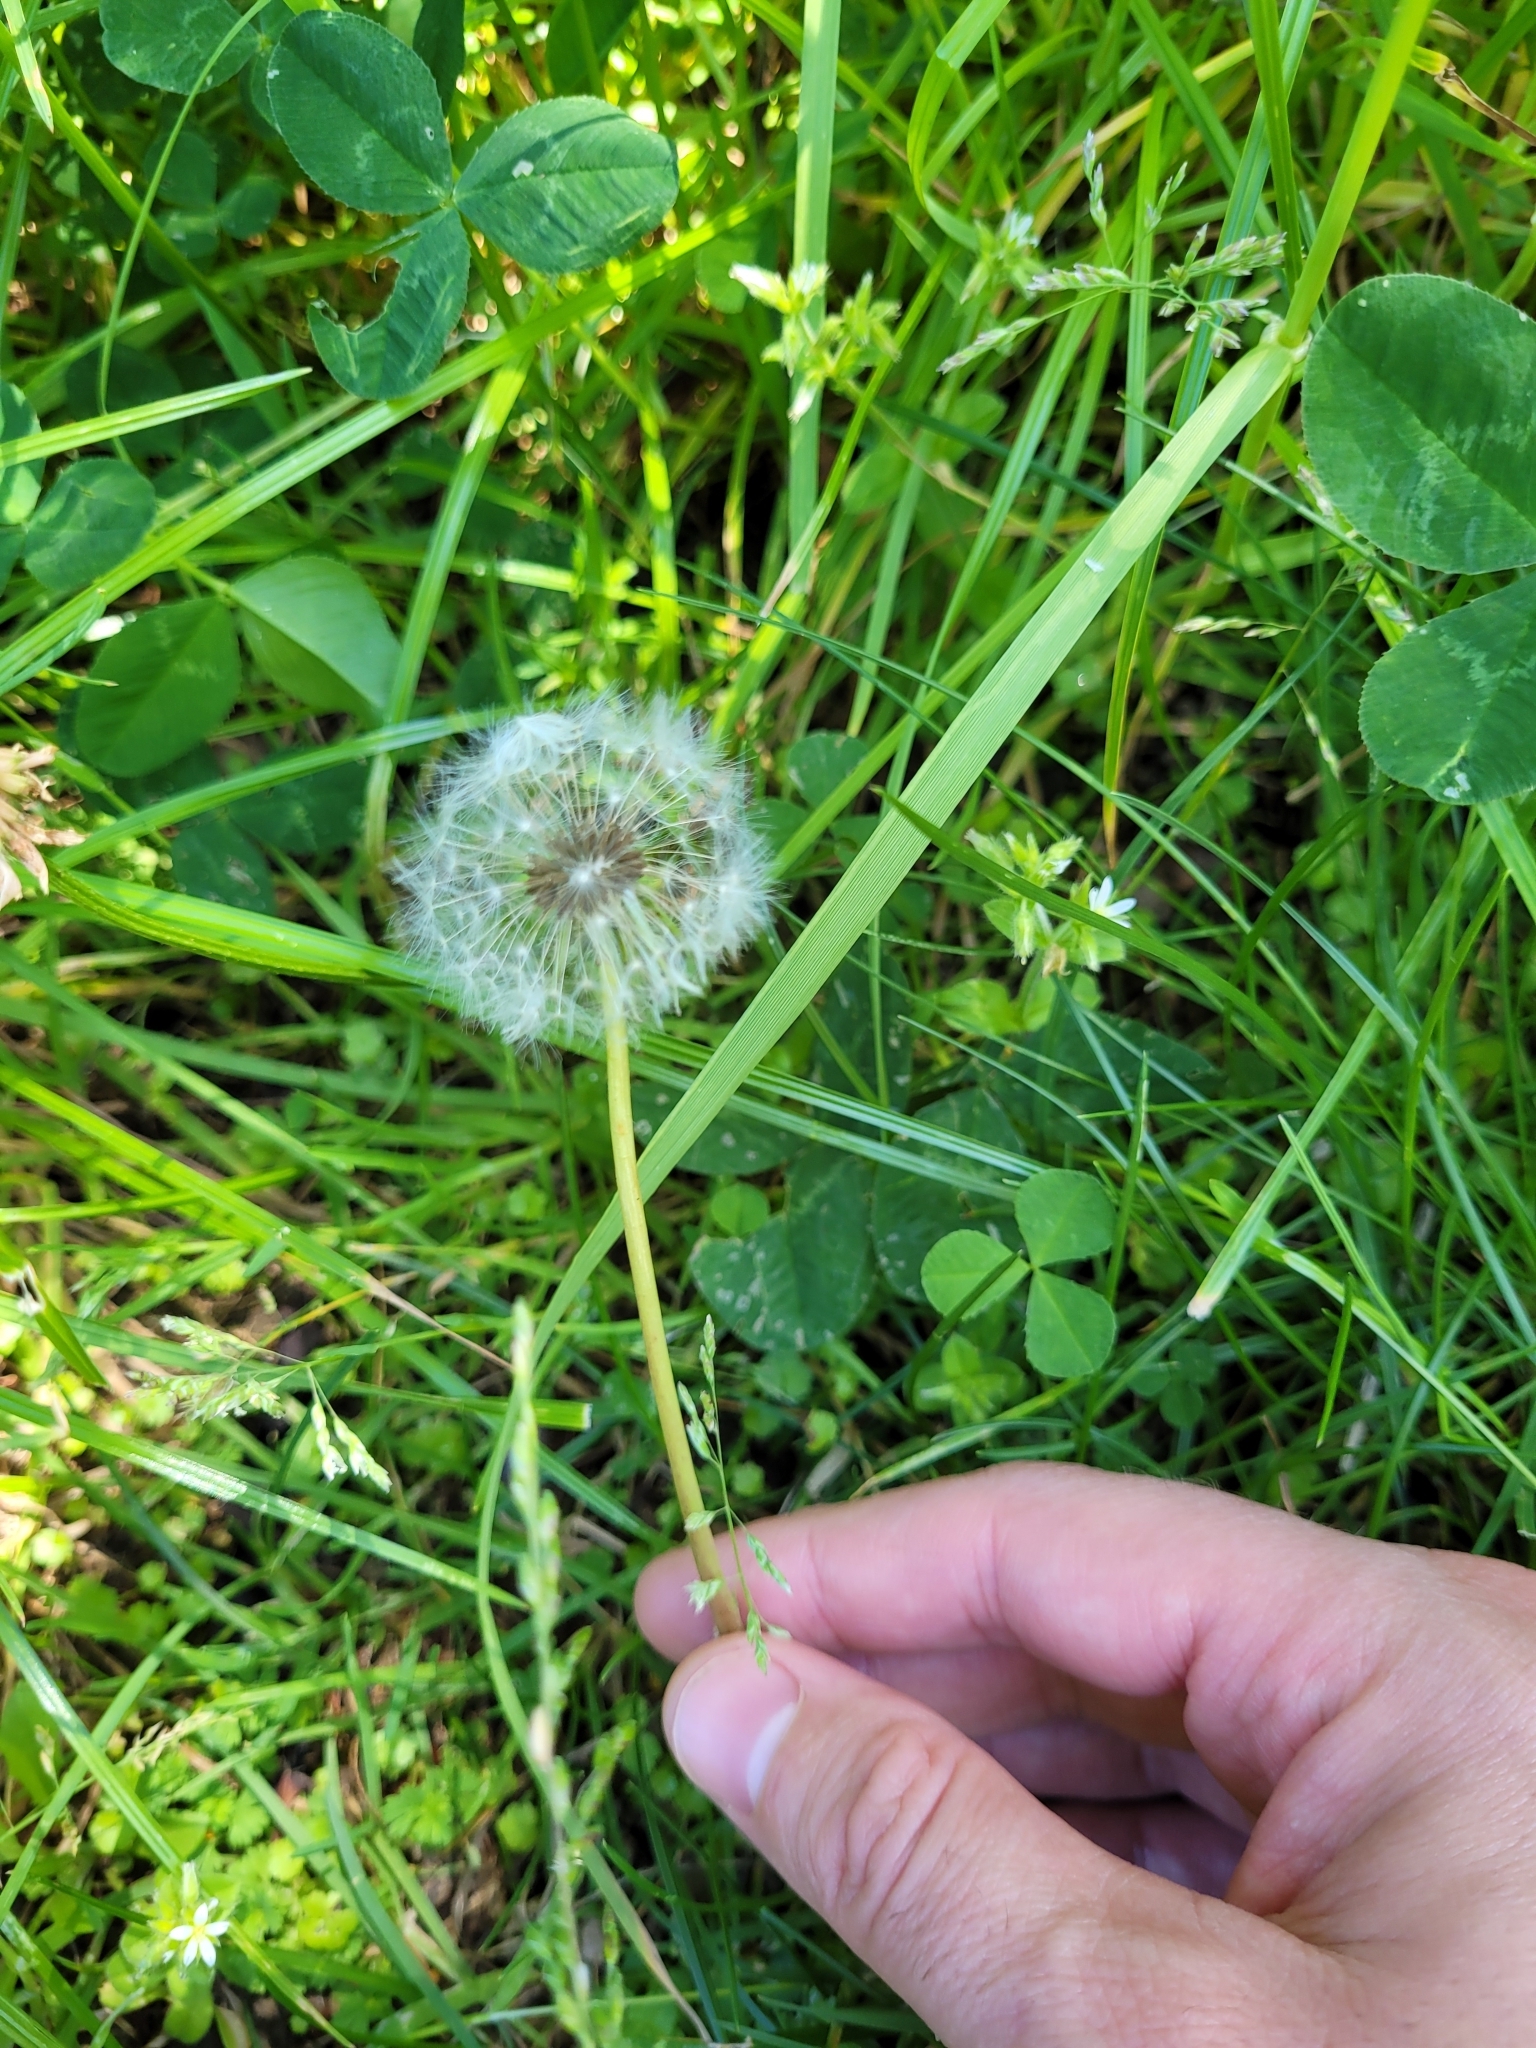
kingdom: Plantae
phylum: Tracheophyta
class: Magnoliopsida
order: Asterales
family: Asteraceae
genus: Taraxacum
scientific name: Taraxacum officinale
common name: Common dandelion
